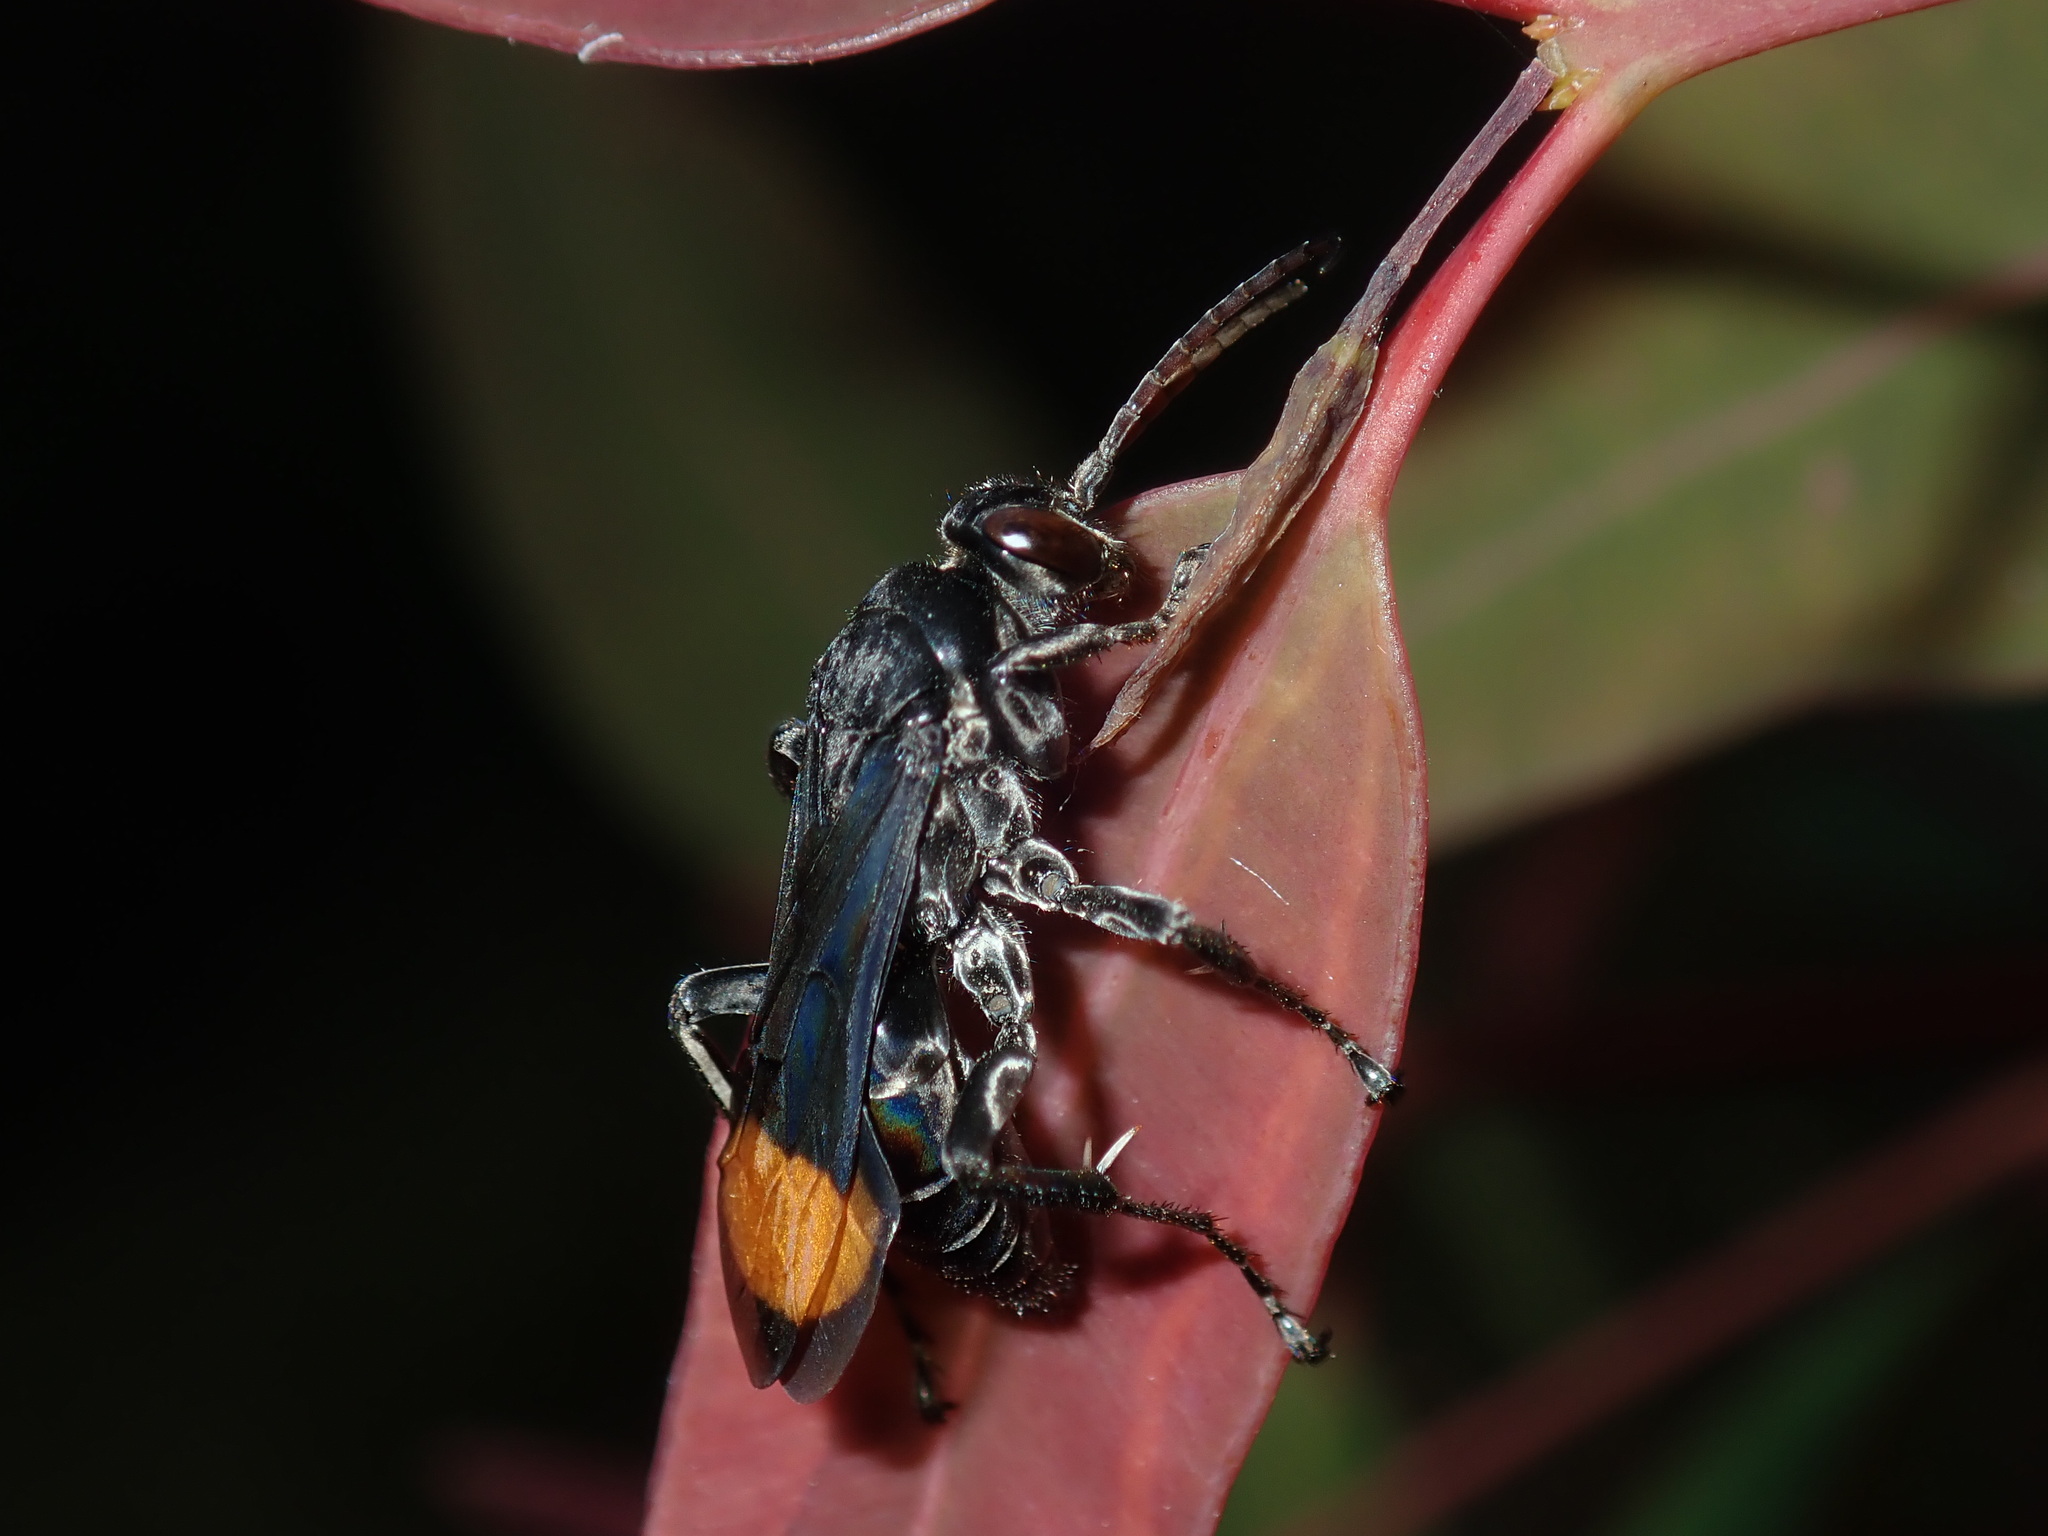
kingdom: Animalia
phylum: Arthropoda
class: Insecta
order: Hymenoptera
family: Pompilidae
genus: Calopompilus
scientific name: Calopompilus raptor
